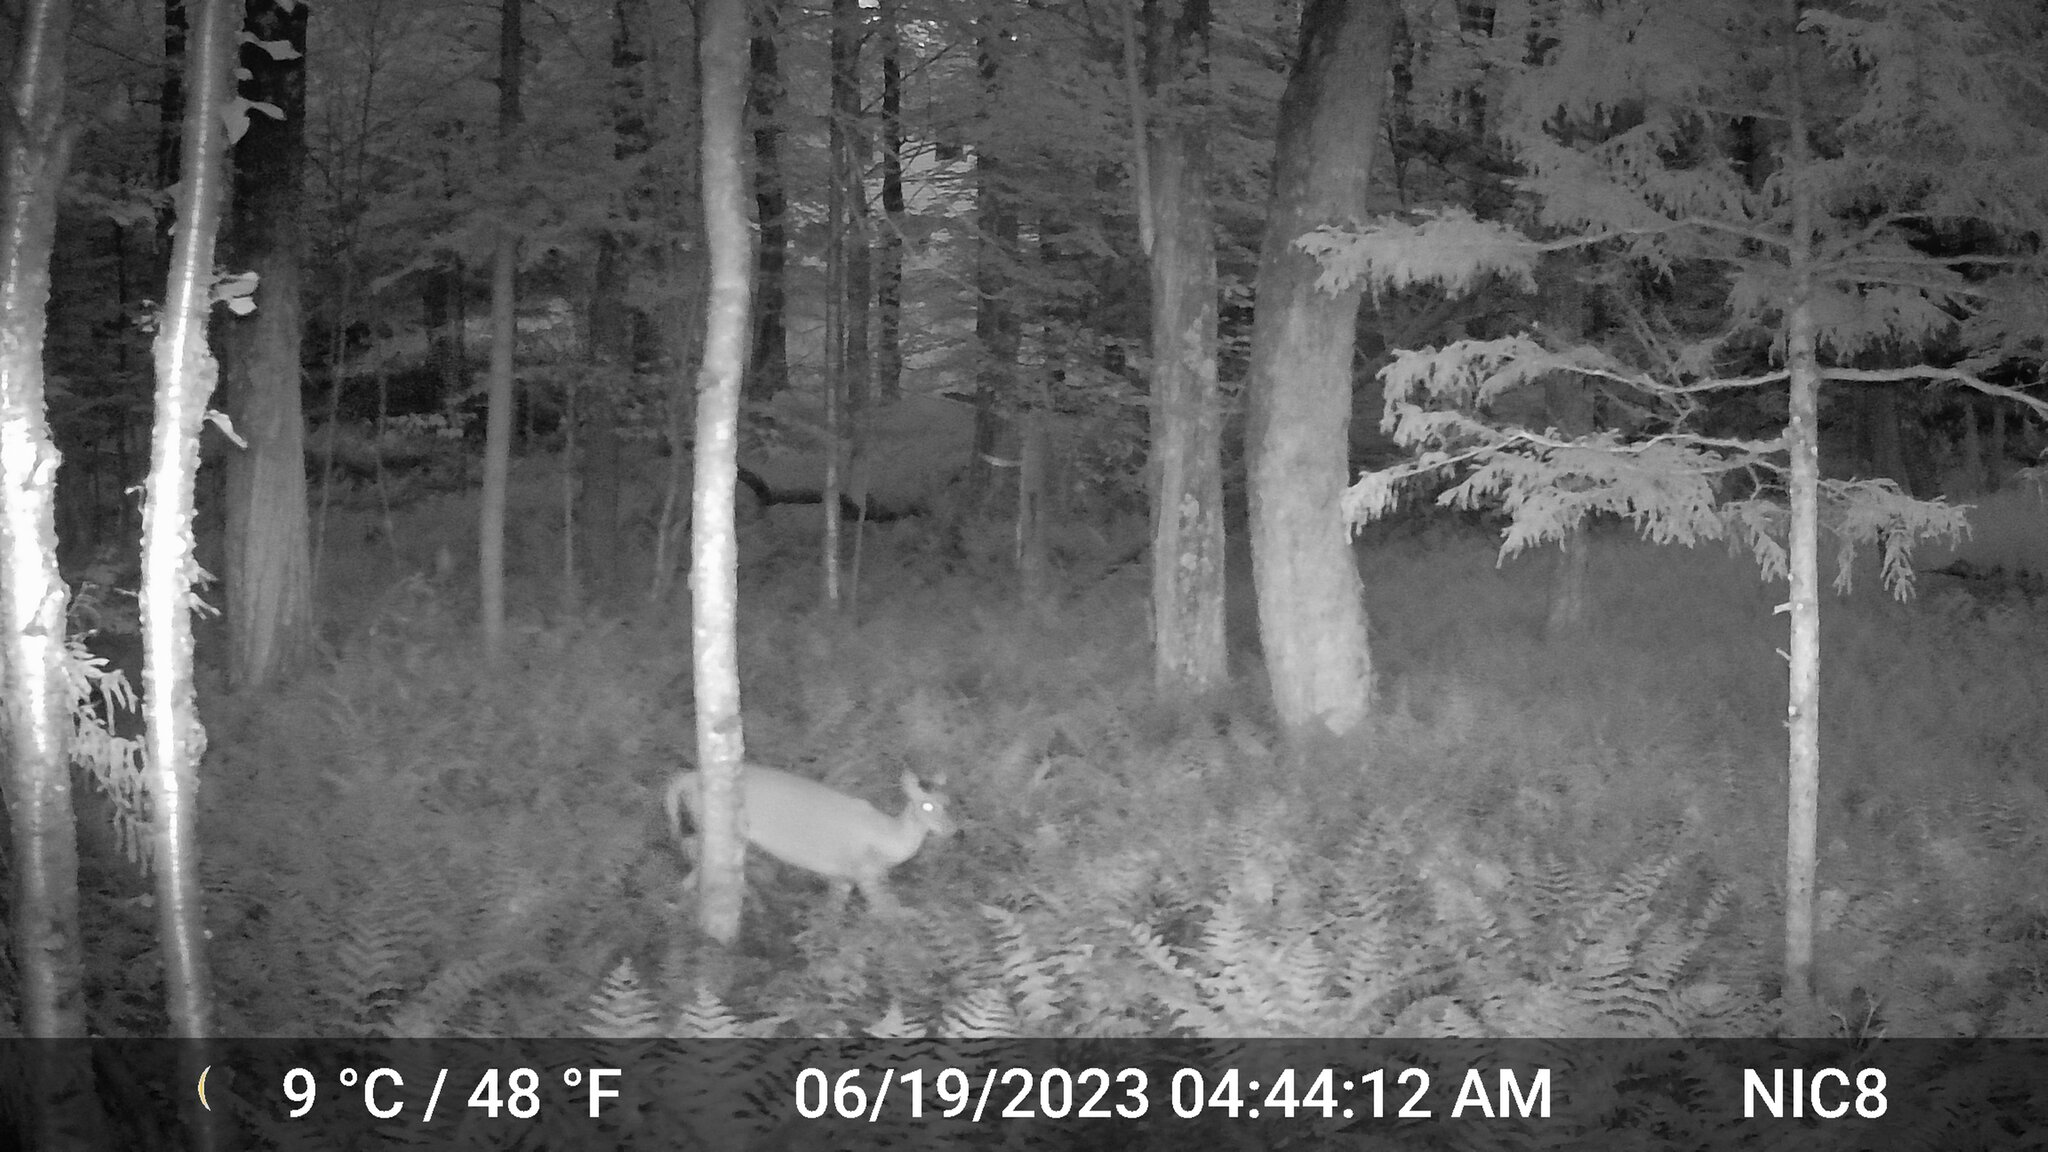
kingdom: Animalia
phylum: Chordata
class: Mammalia
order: Artiodactyla
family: Cervidae
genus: Odocoileus
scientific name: Odocoileus virginianus
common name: White-tailed deer
